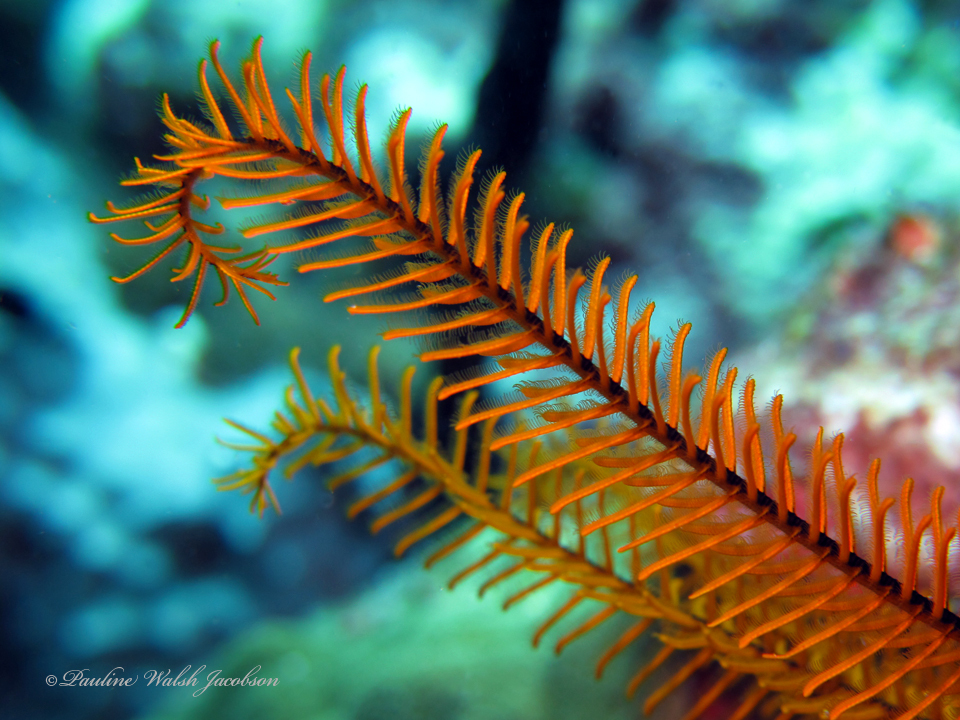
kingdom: Animalia
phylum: Echinodermata
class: Crinoidea
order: Comatulida
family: Comatulidae
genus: Davidaster
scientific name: Davidaster rubiginosus
